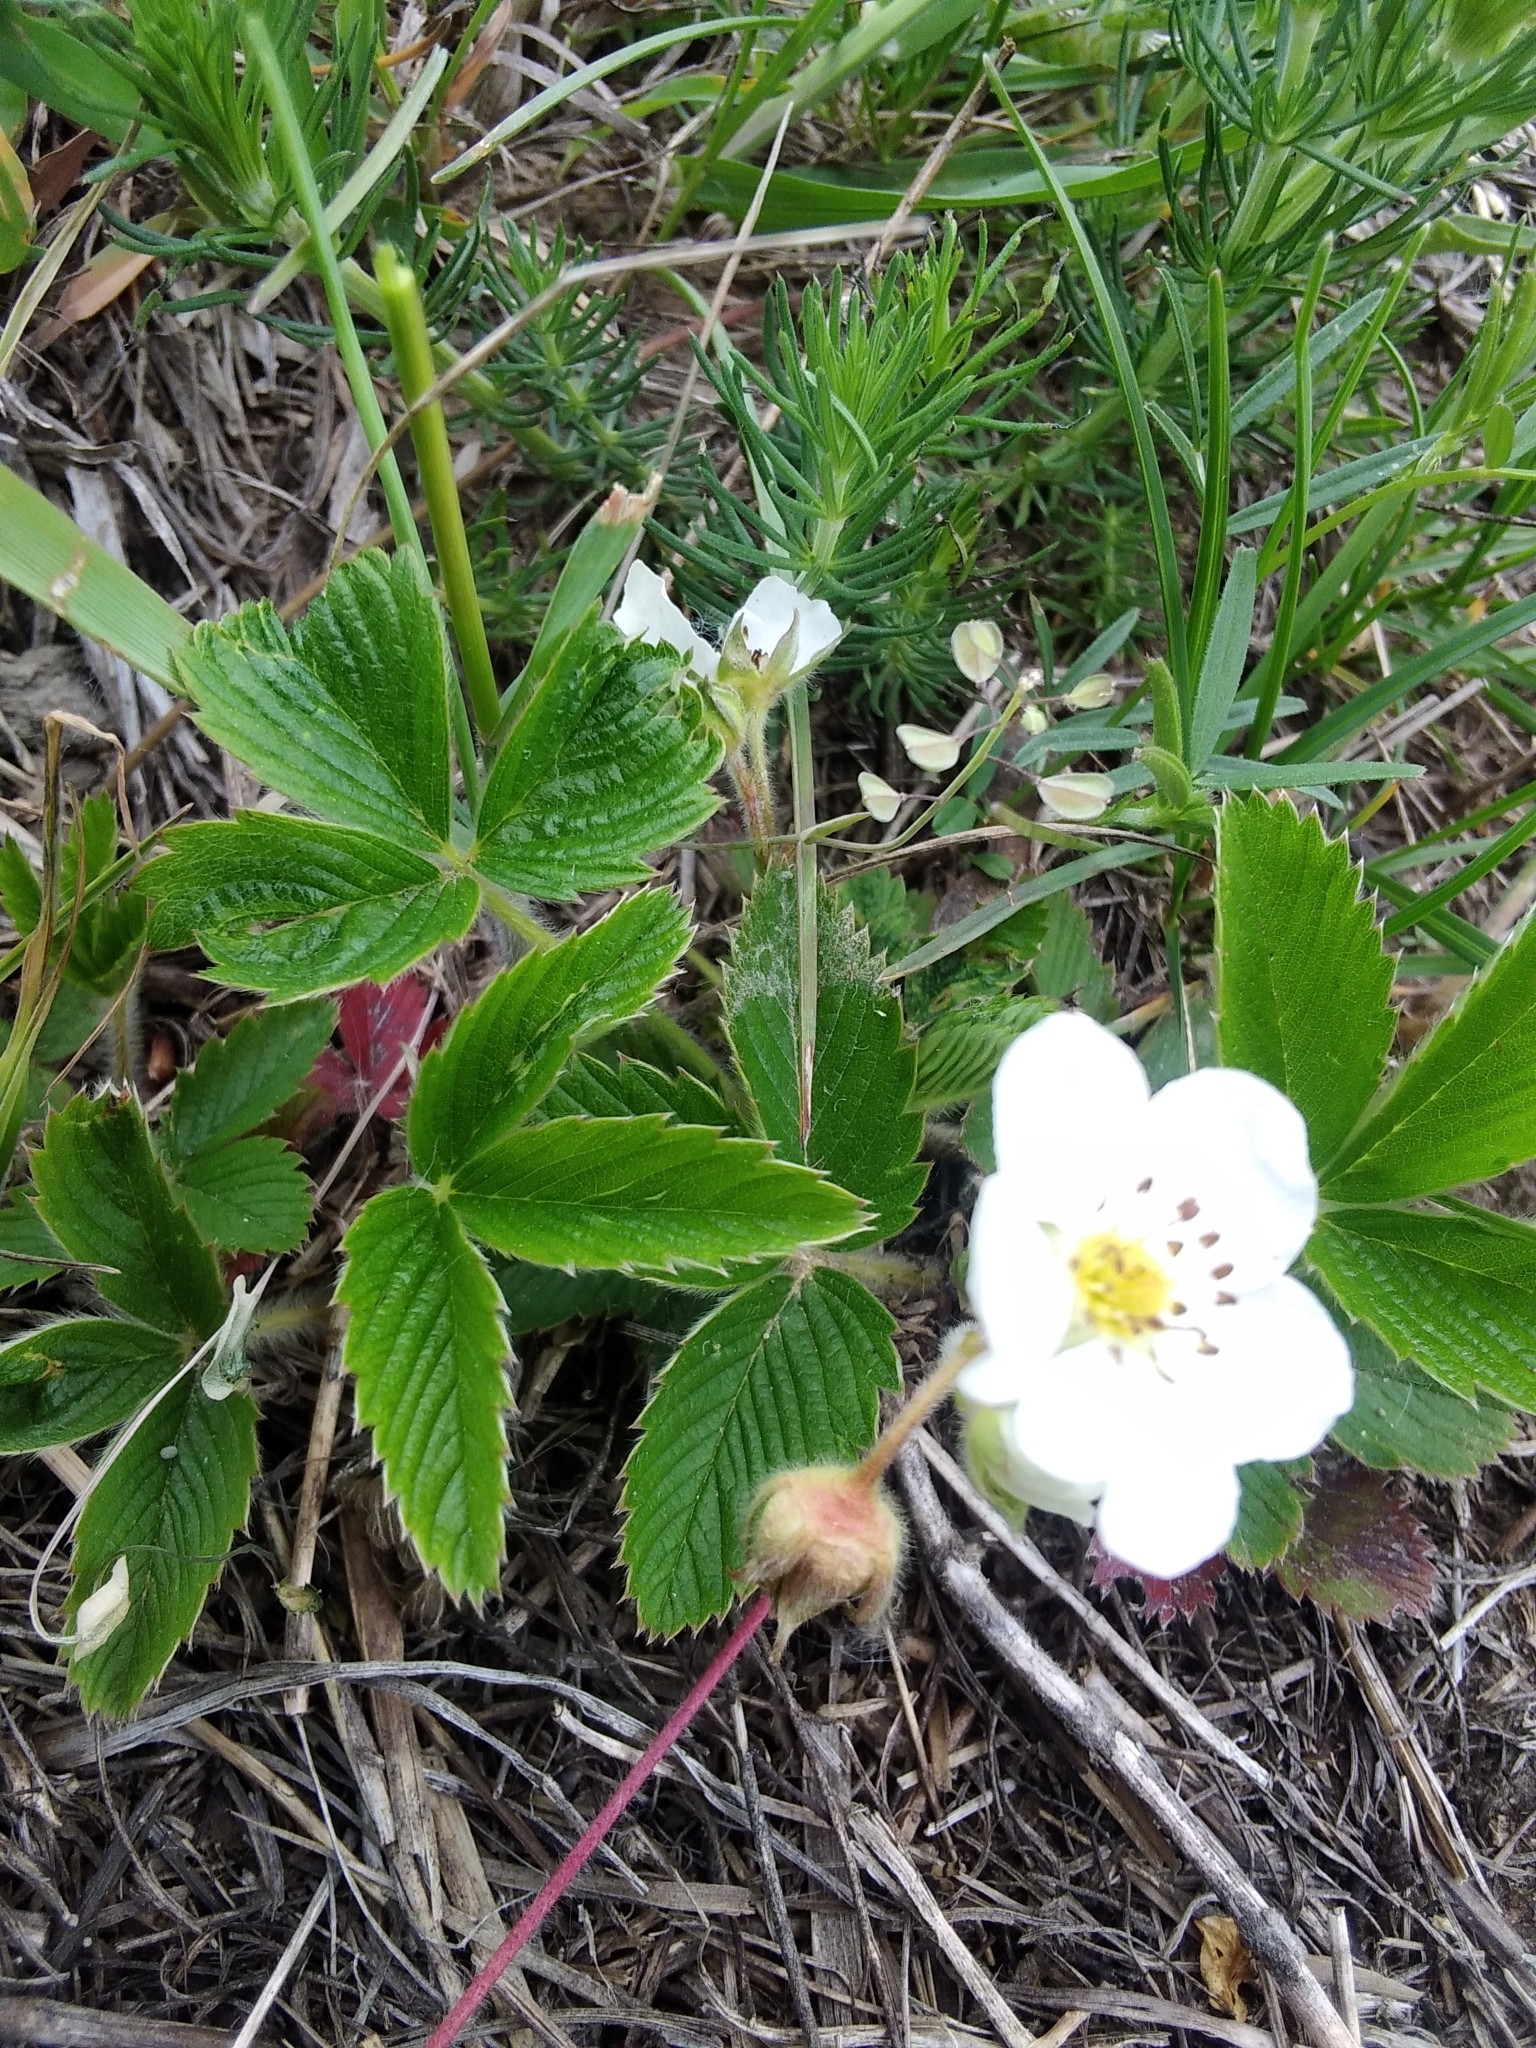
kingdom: Plantae
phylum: Tracheophyta
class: Magnoliopsida
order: Rosales
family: Rosaceae
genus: Fragaria
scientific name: Fragaria viridis
